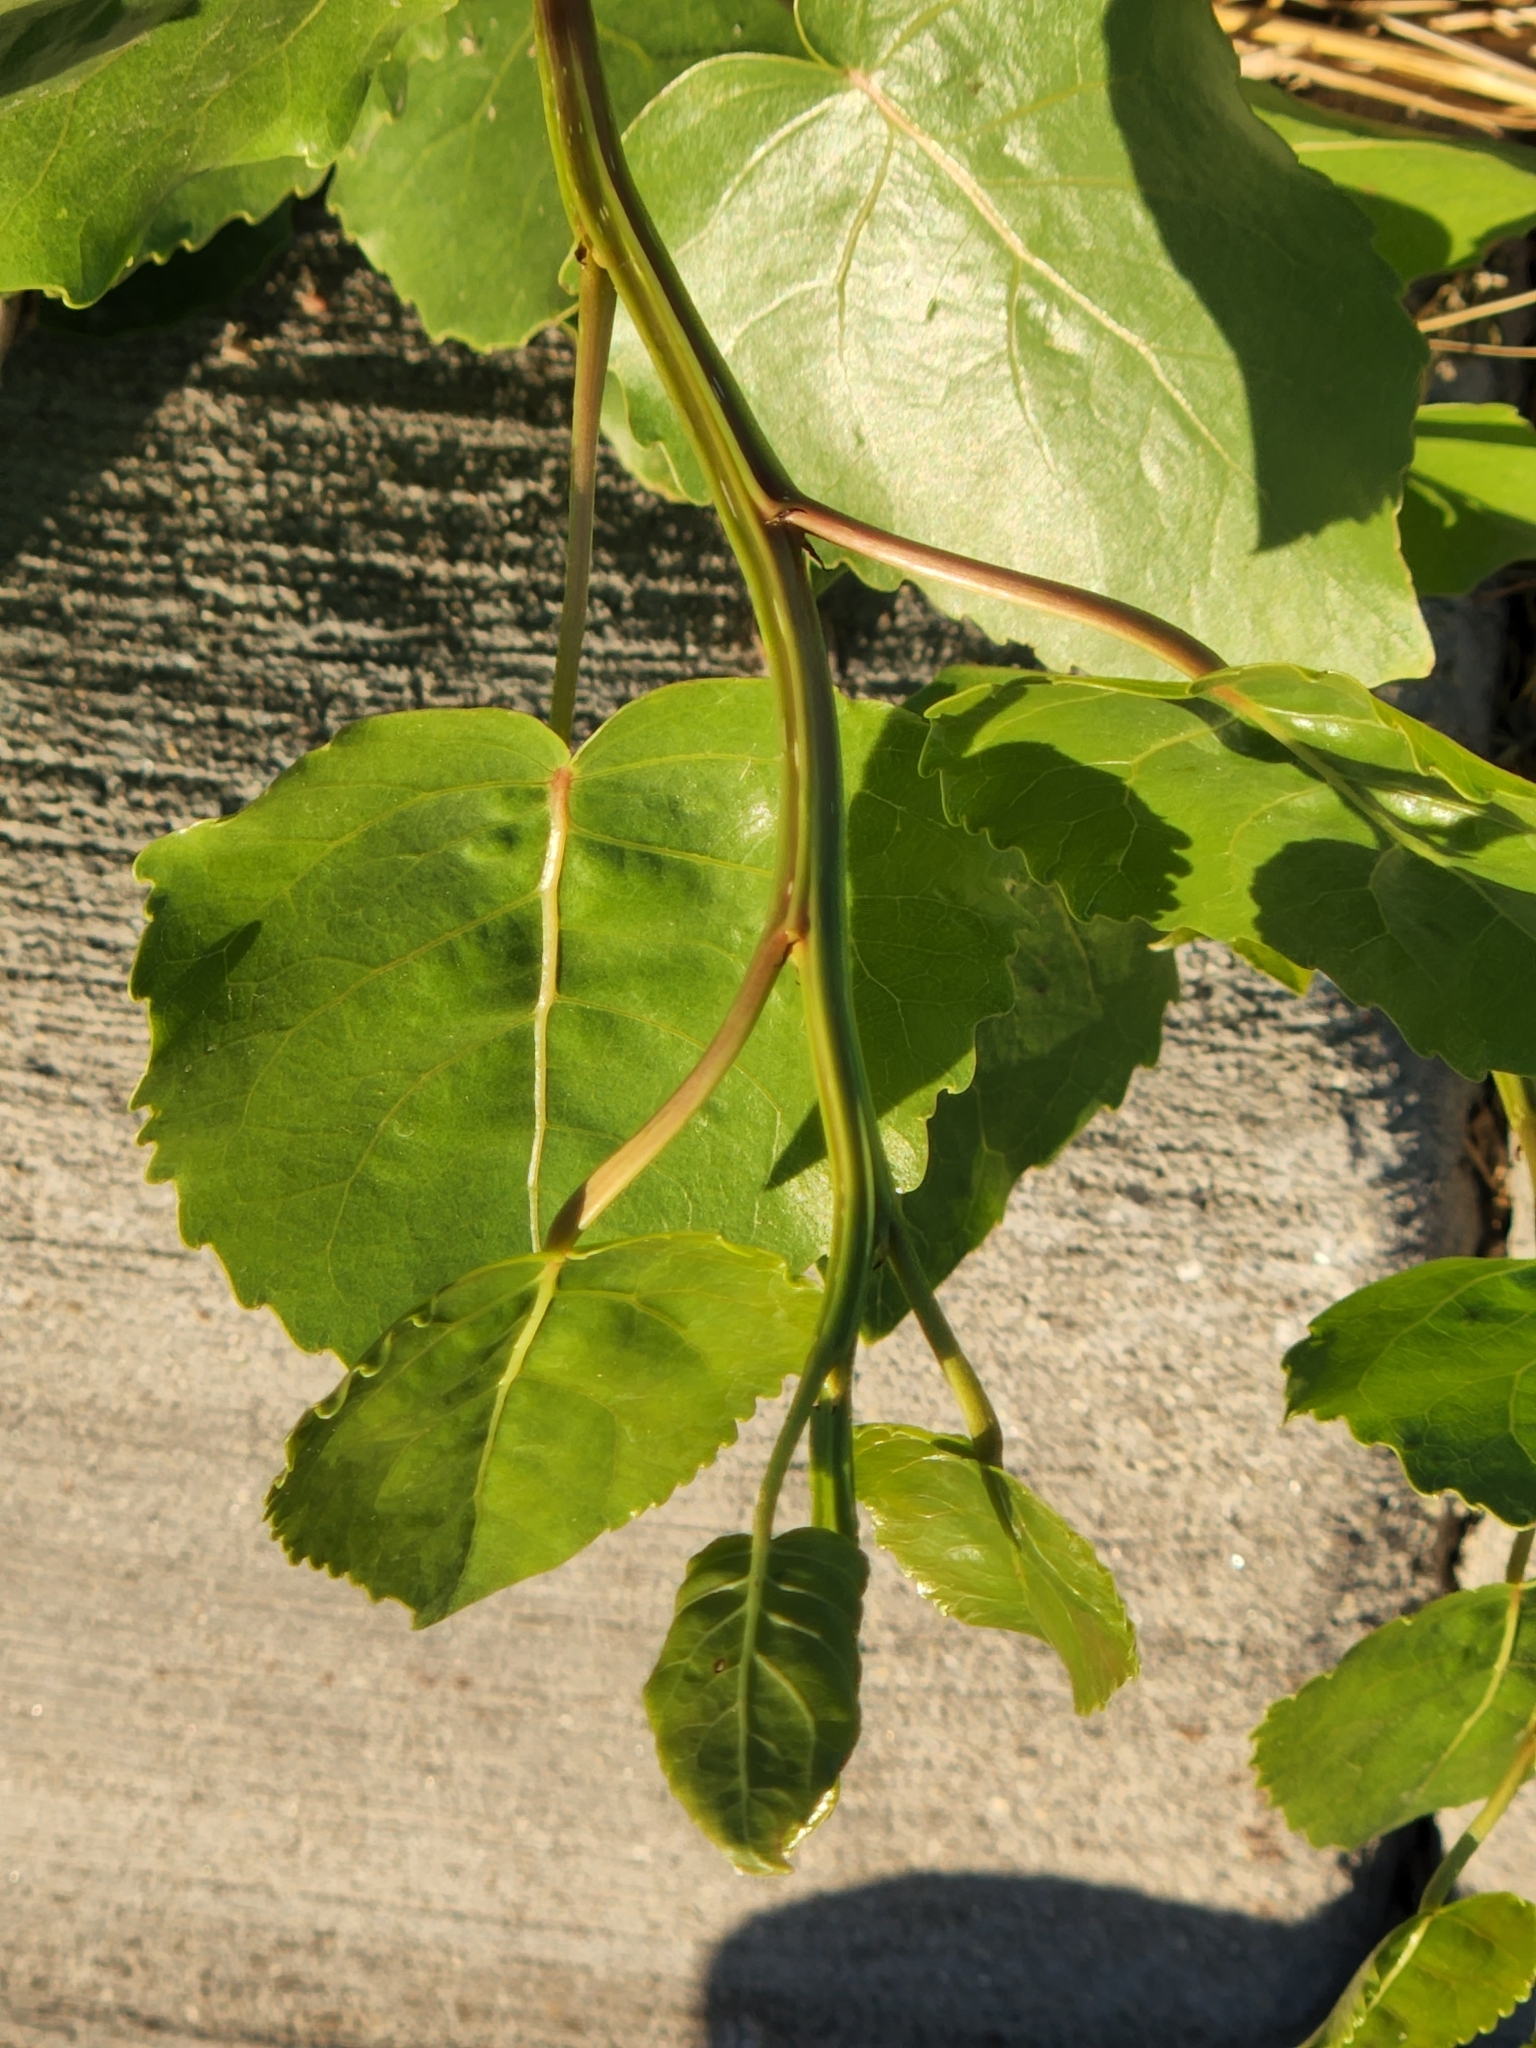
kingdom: Plantae
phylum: Tracheophyta
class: Magnoliopsida
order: Malpighiales
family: Salicaceae
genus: Populus
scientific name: Populus deltoides
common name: Eastern cottonwood
